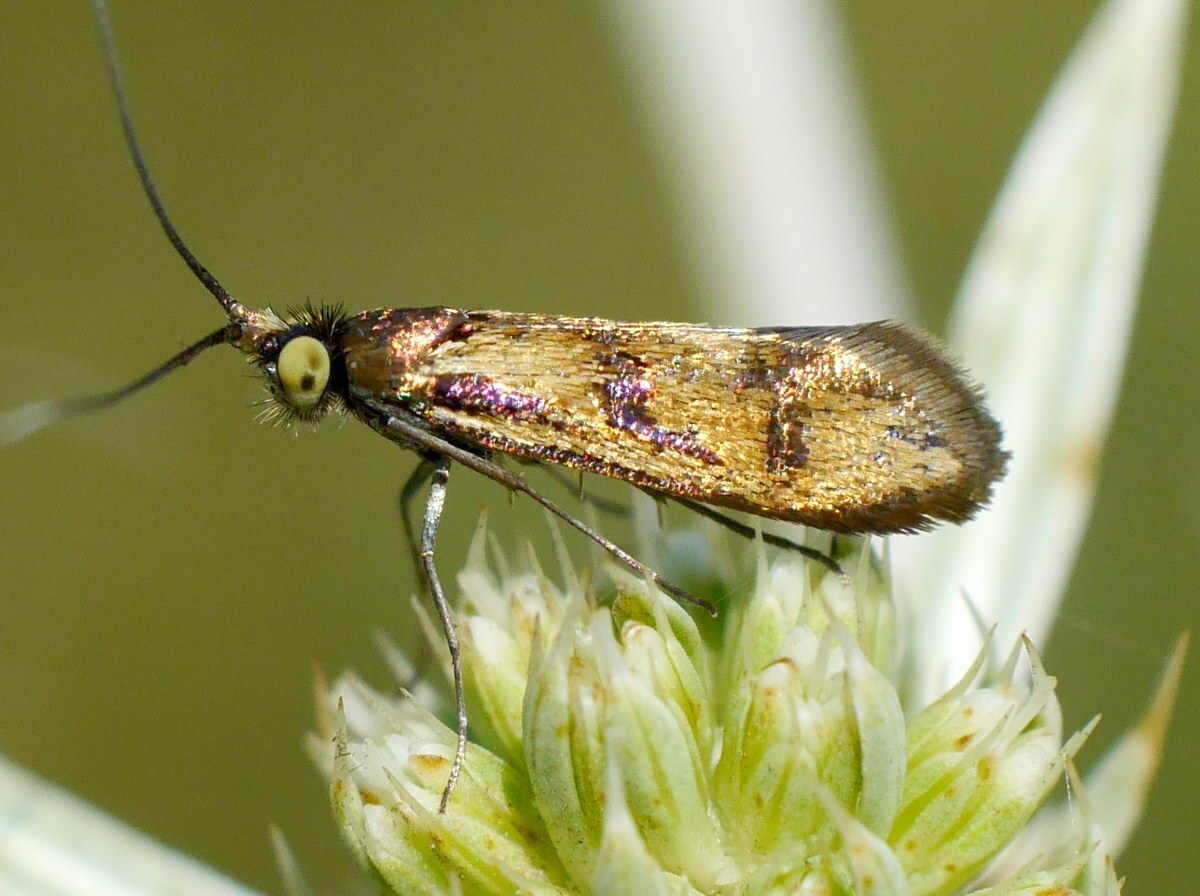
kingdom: Animalia
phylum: Arthropoda
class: Insecta
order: Lepidoptera
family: Adelidae
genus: Nemophora
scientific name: Nemophora chrysochraon
